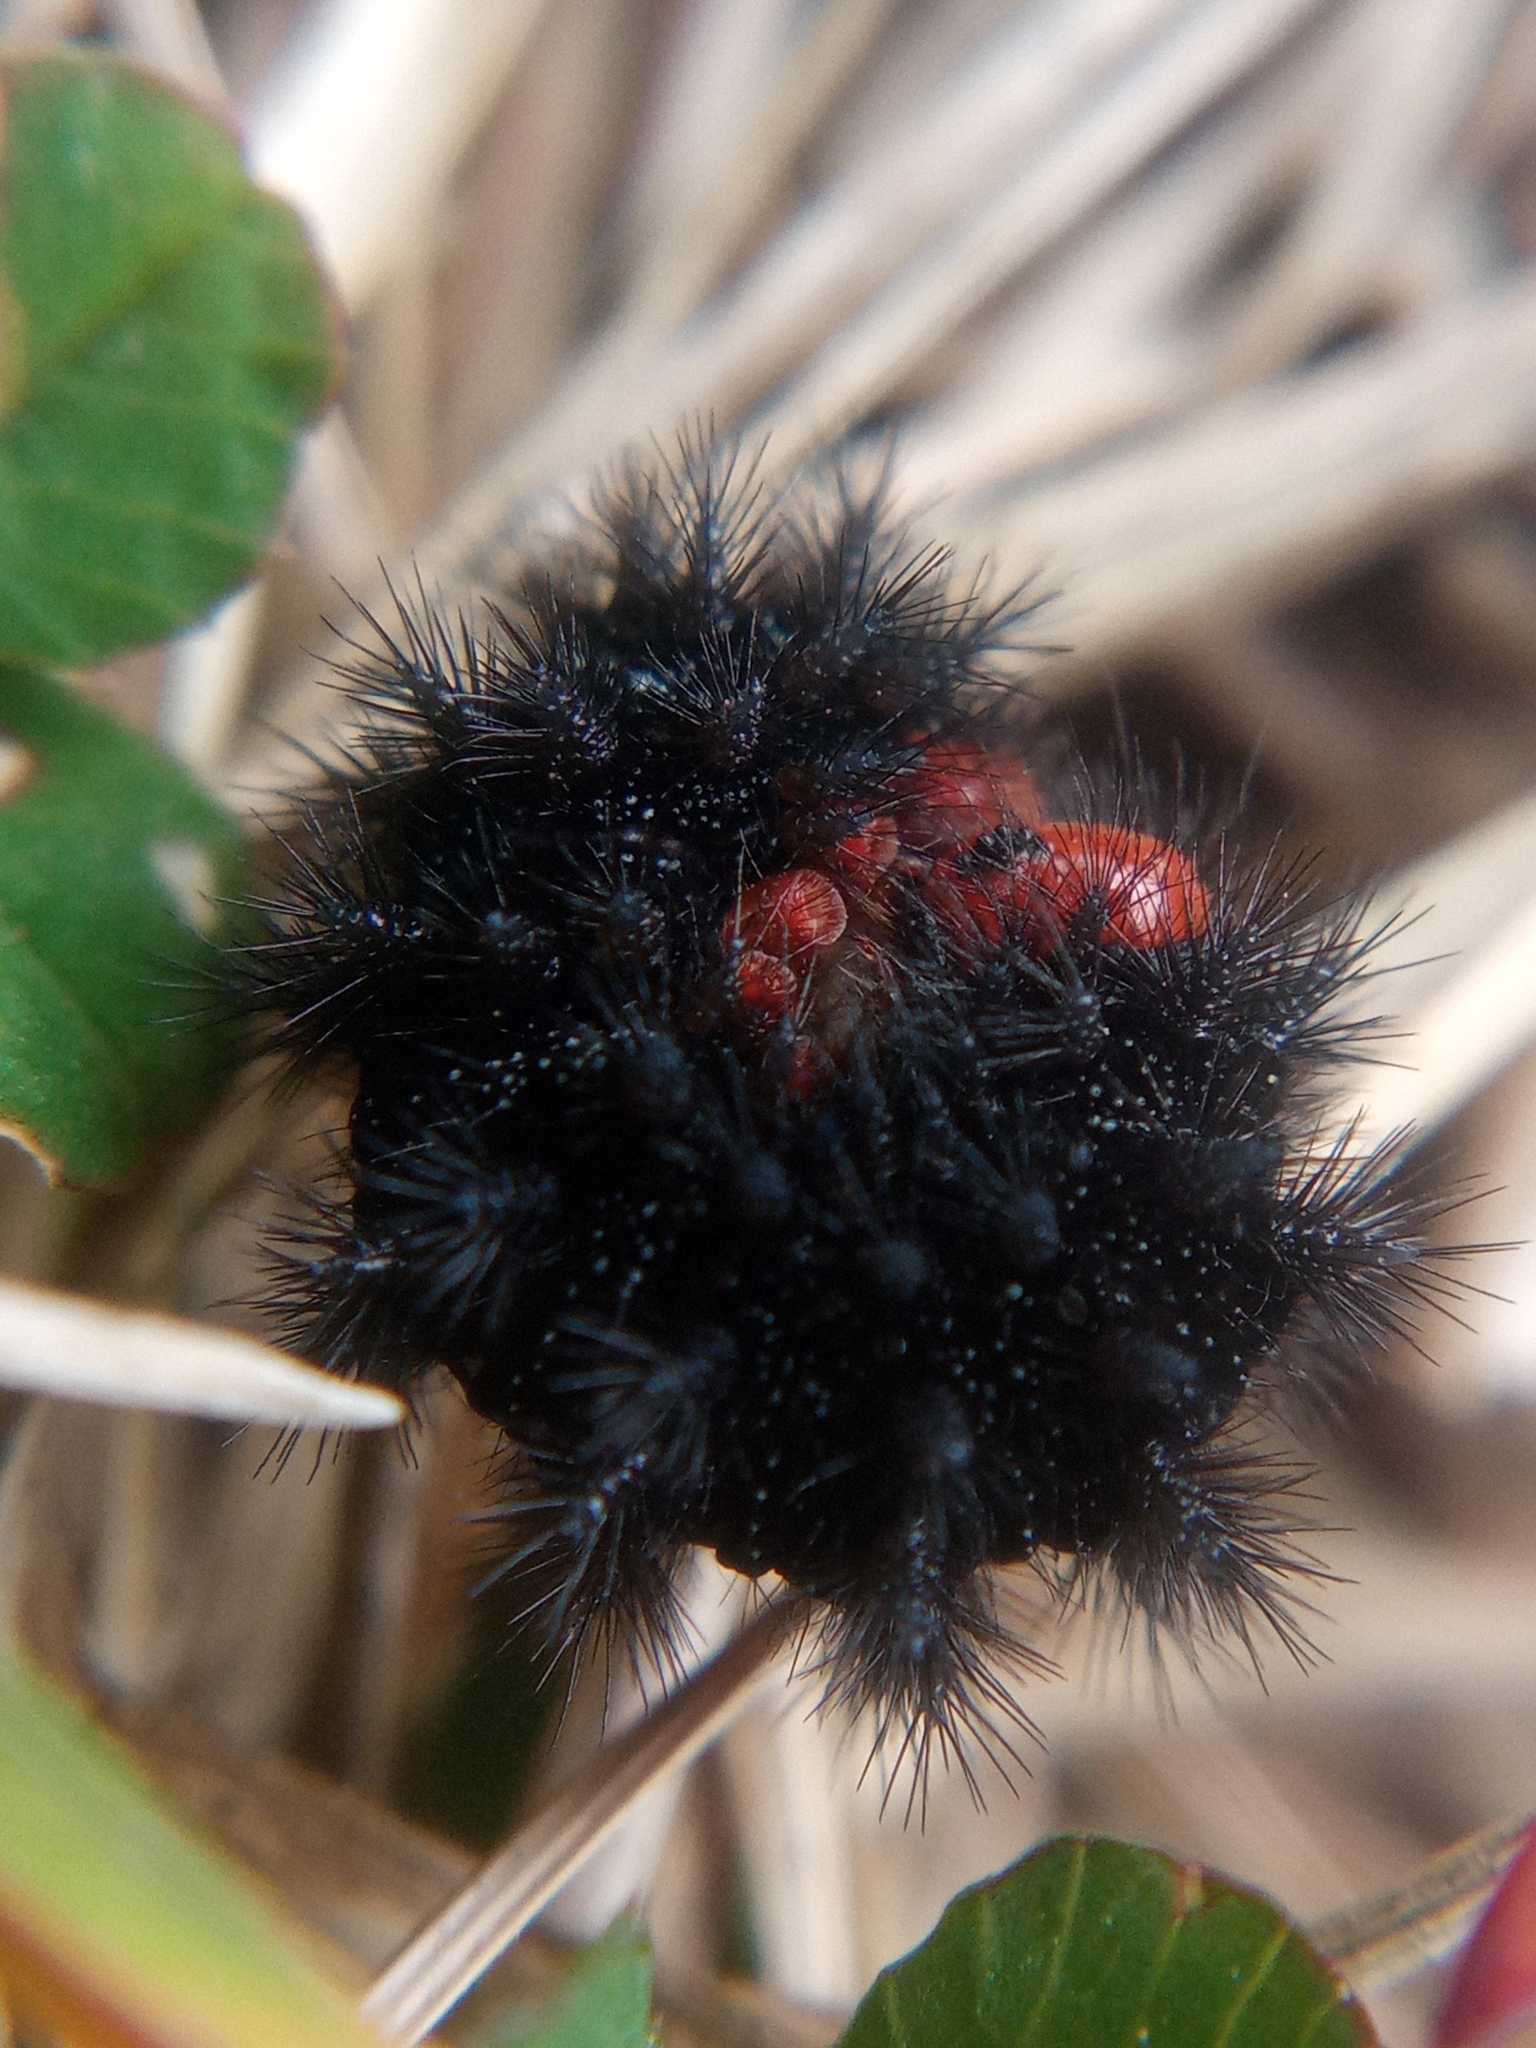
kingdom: Animalia
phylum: Arthropoda
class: Insecta
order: Lepidoptera
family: Nymphalidae
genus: Melitaea
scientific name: Melitaea cinxia
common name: Glanville fritillary
